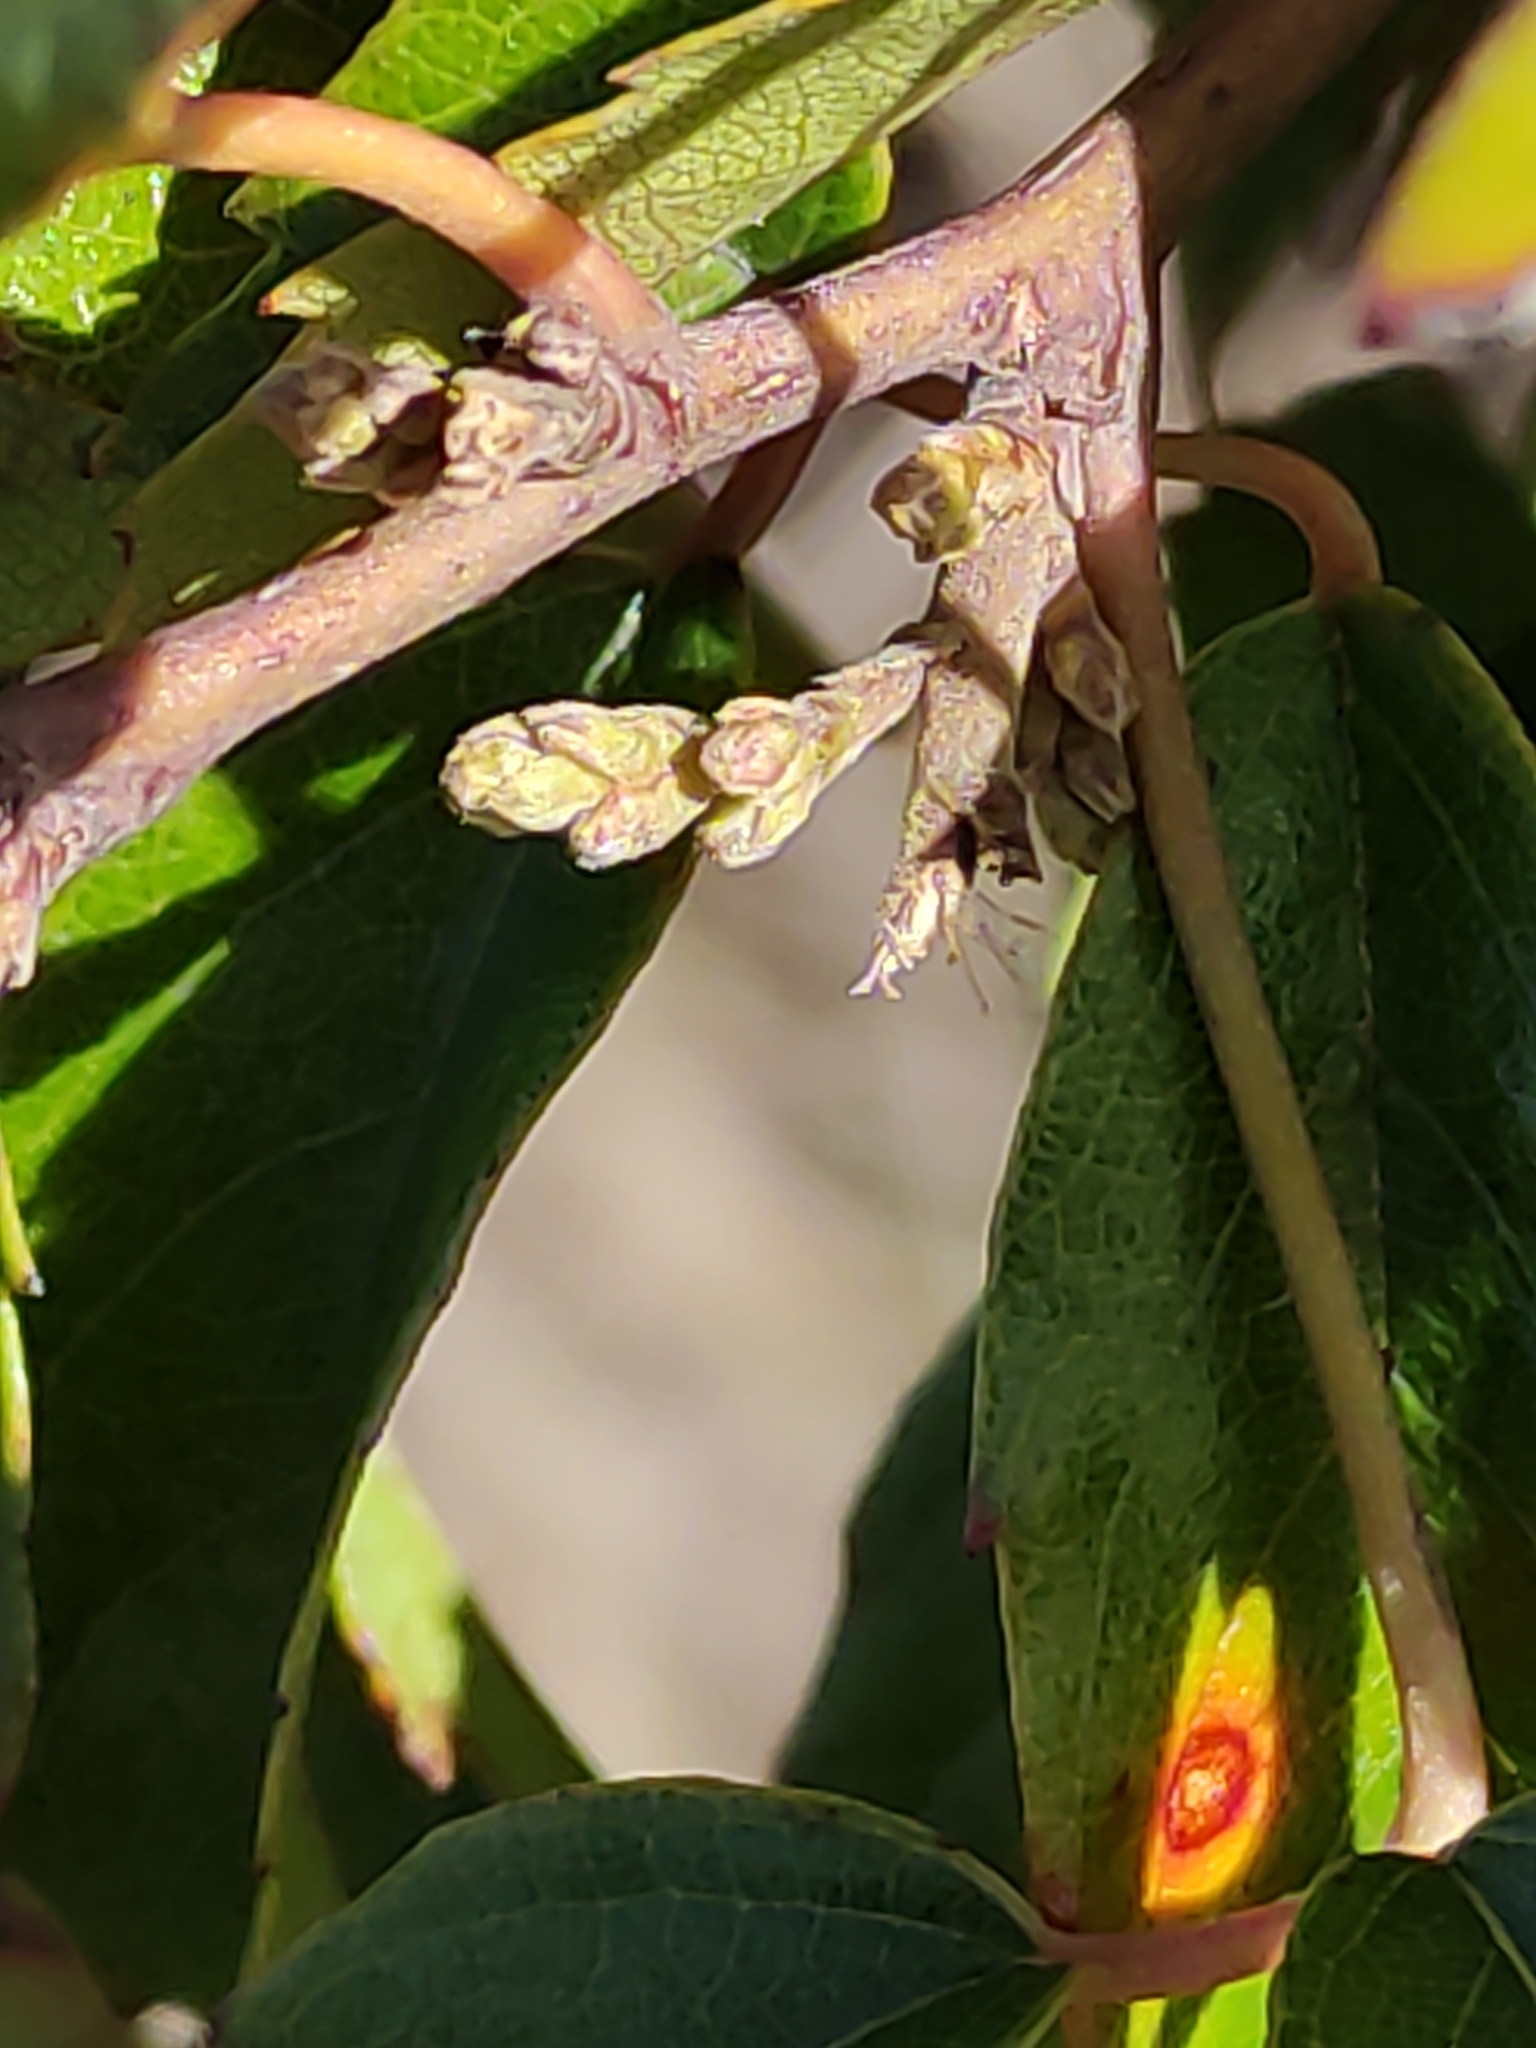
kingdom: Plantae
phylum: Tracheophyta
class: Magnoliopsida
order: Rosales
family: Rosaceae
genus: Rubus
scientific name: Rubus schmidelioides
